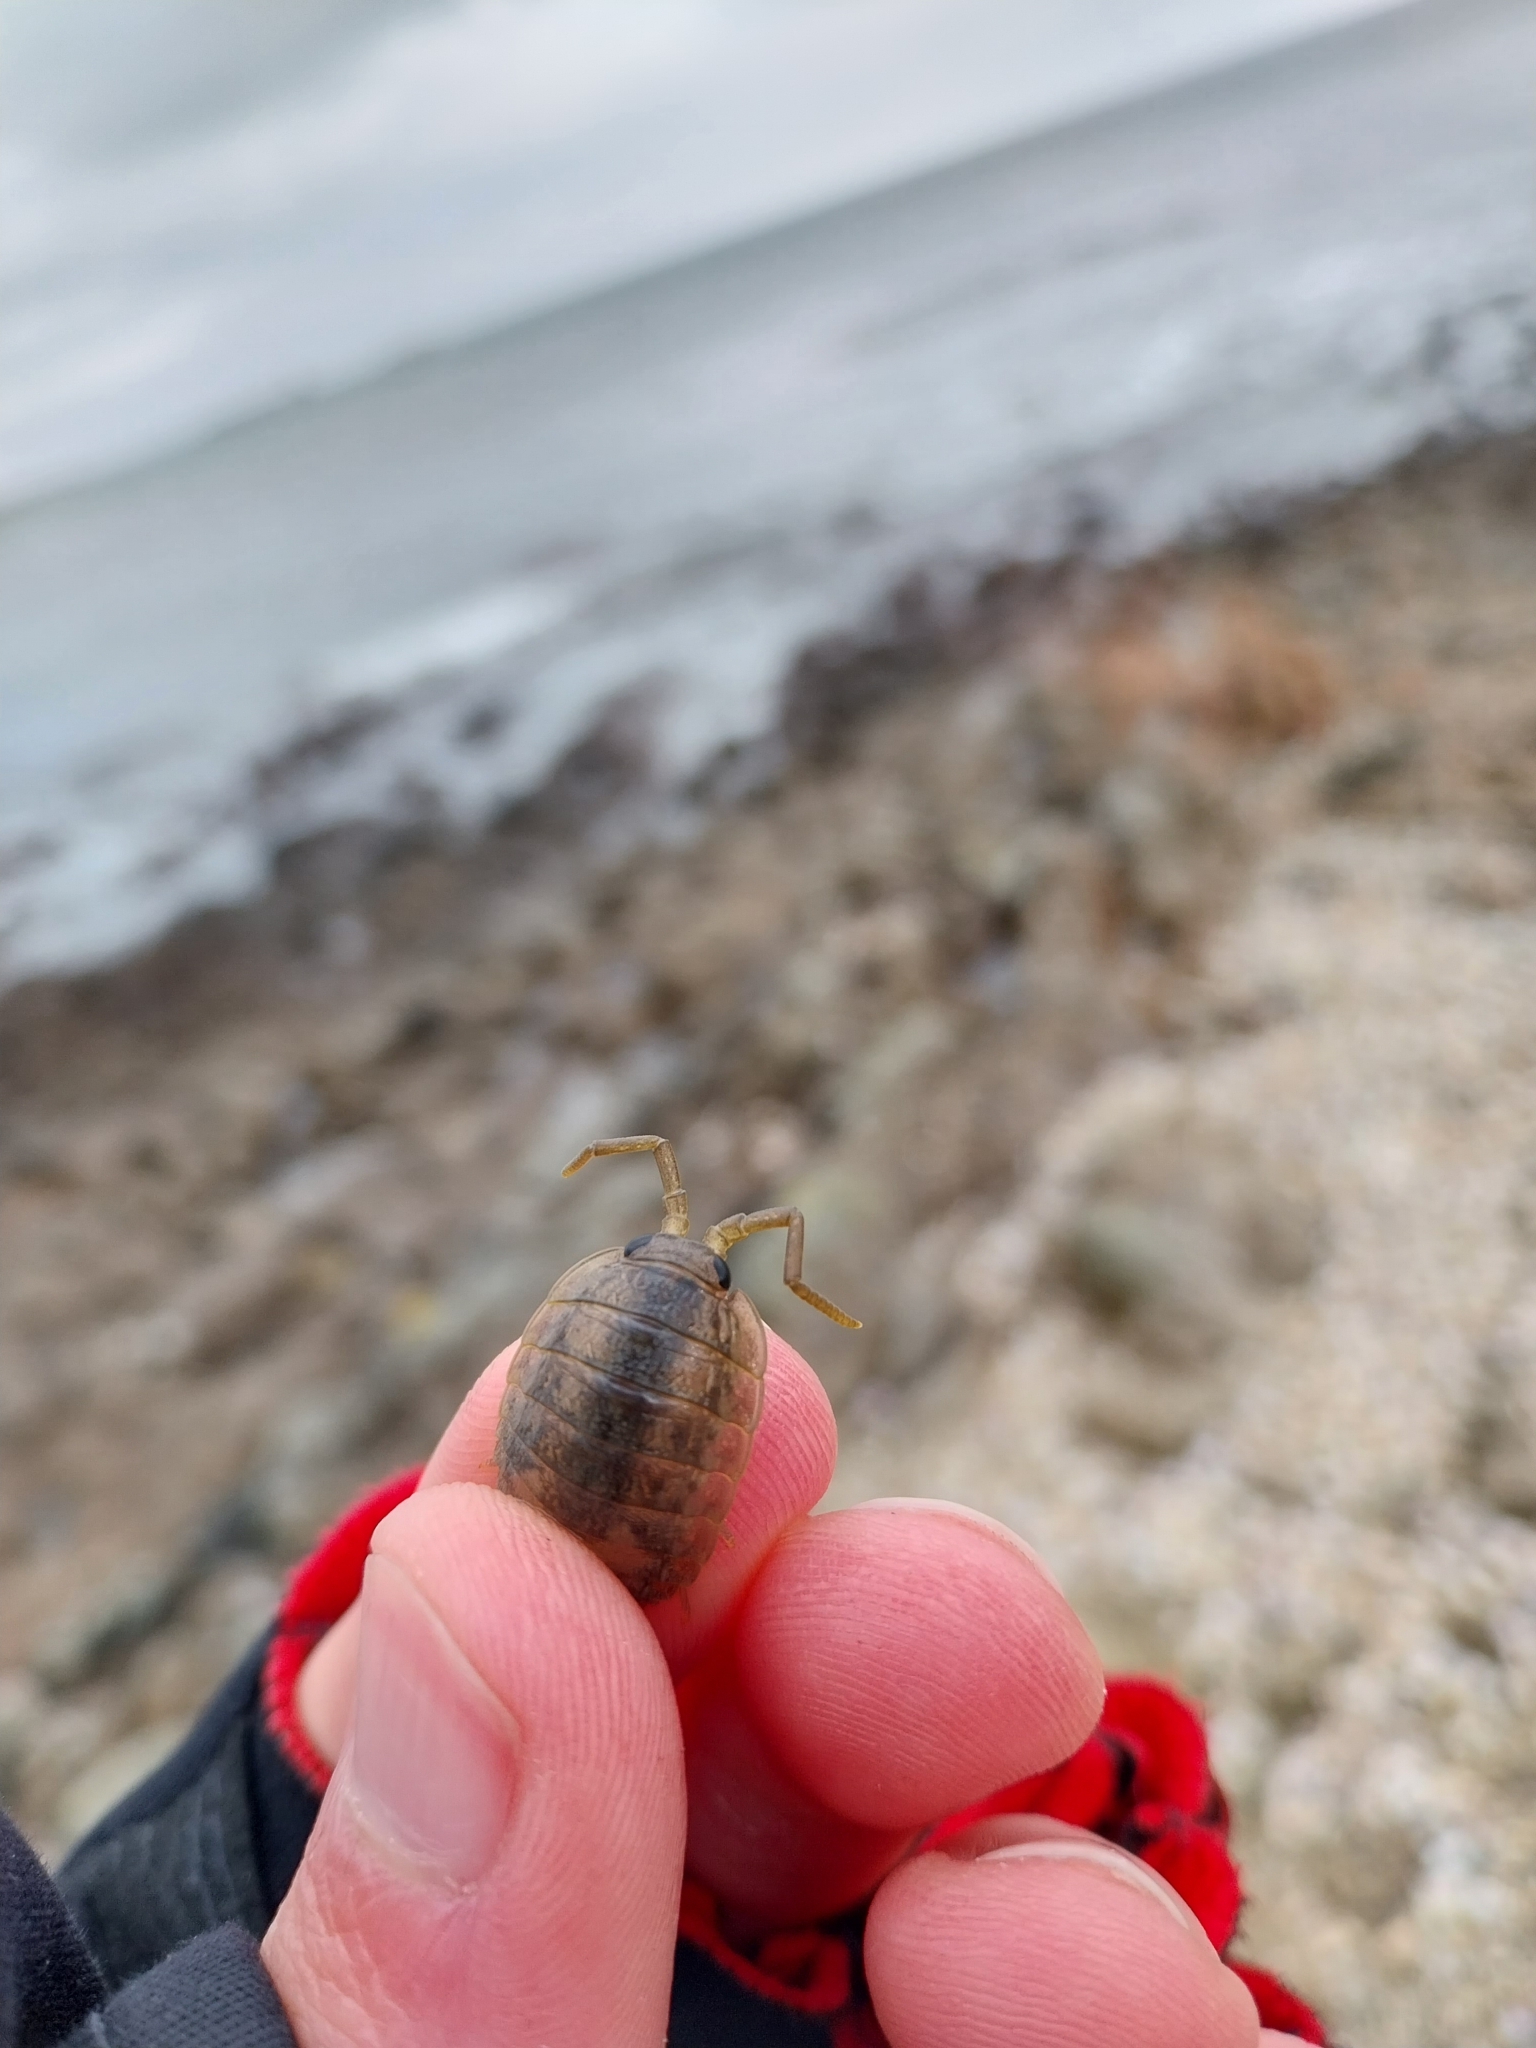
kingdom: Animalia
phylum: Arthropoda
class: Malacostraca
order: Isopoda
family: Ligiidae
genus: Ligia
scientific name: Ligia oceanica
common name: Sea slater
